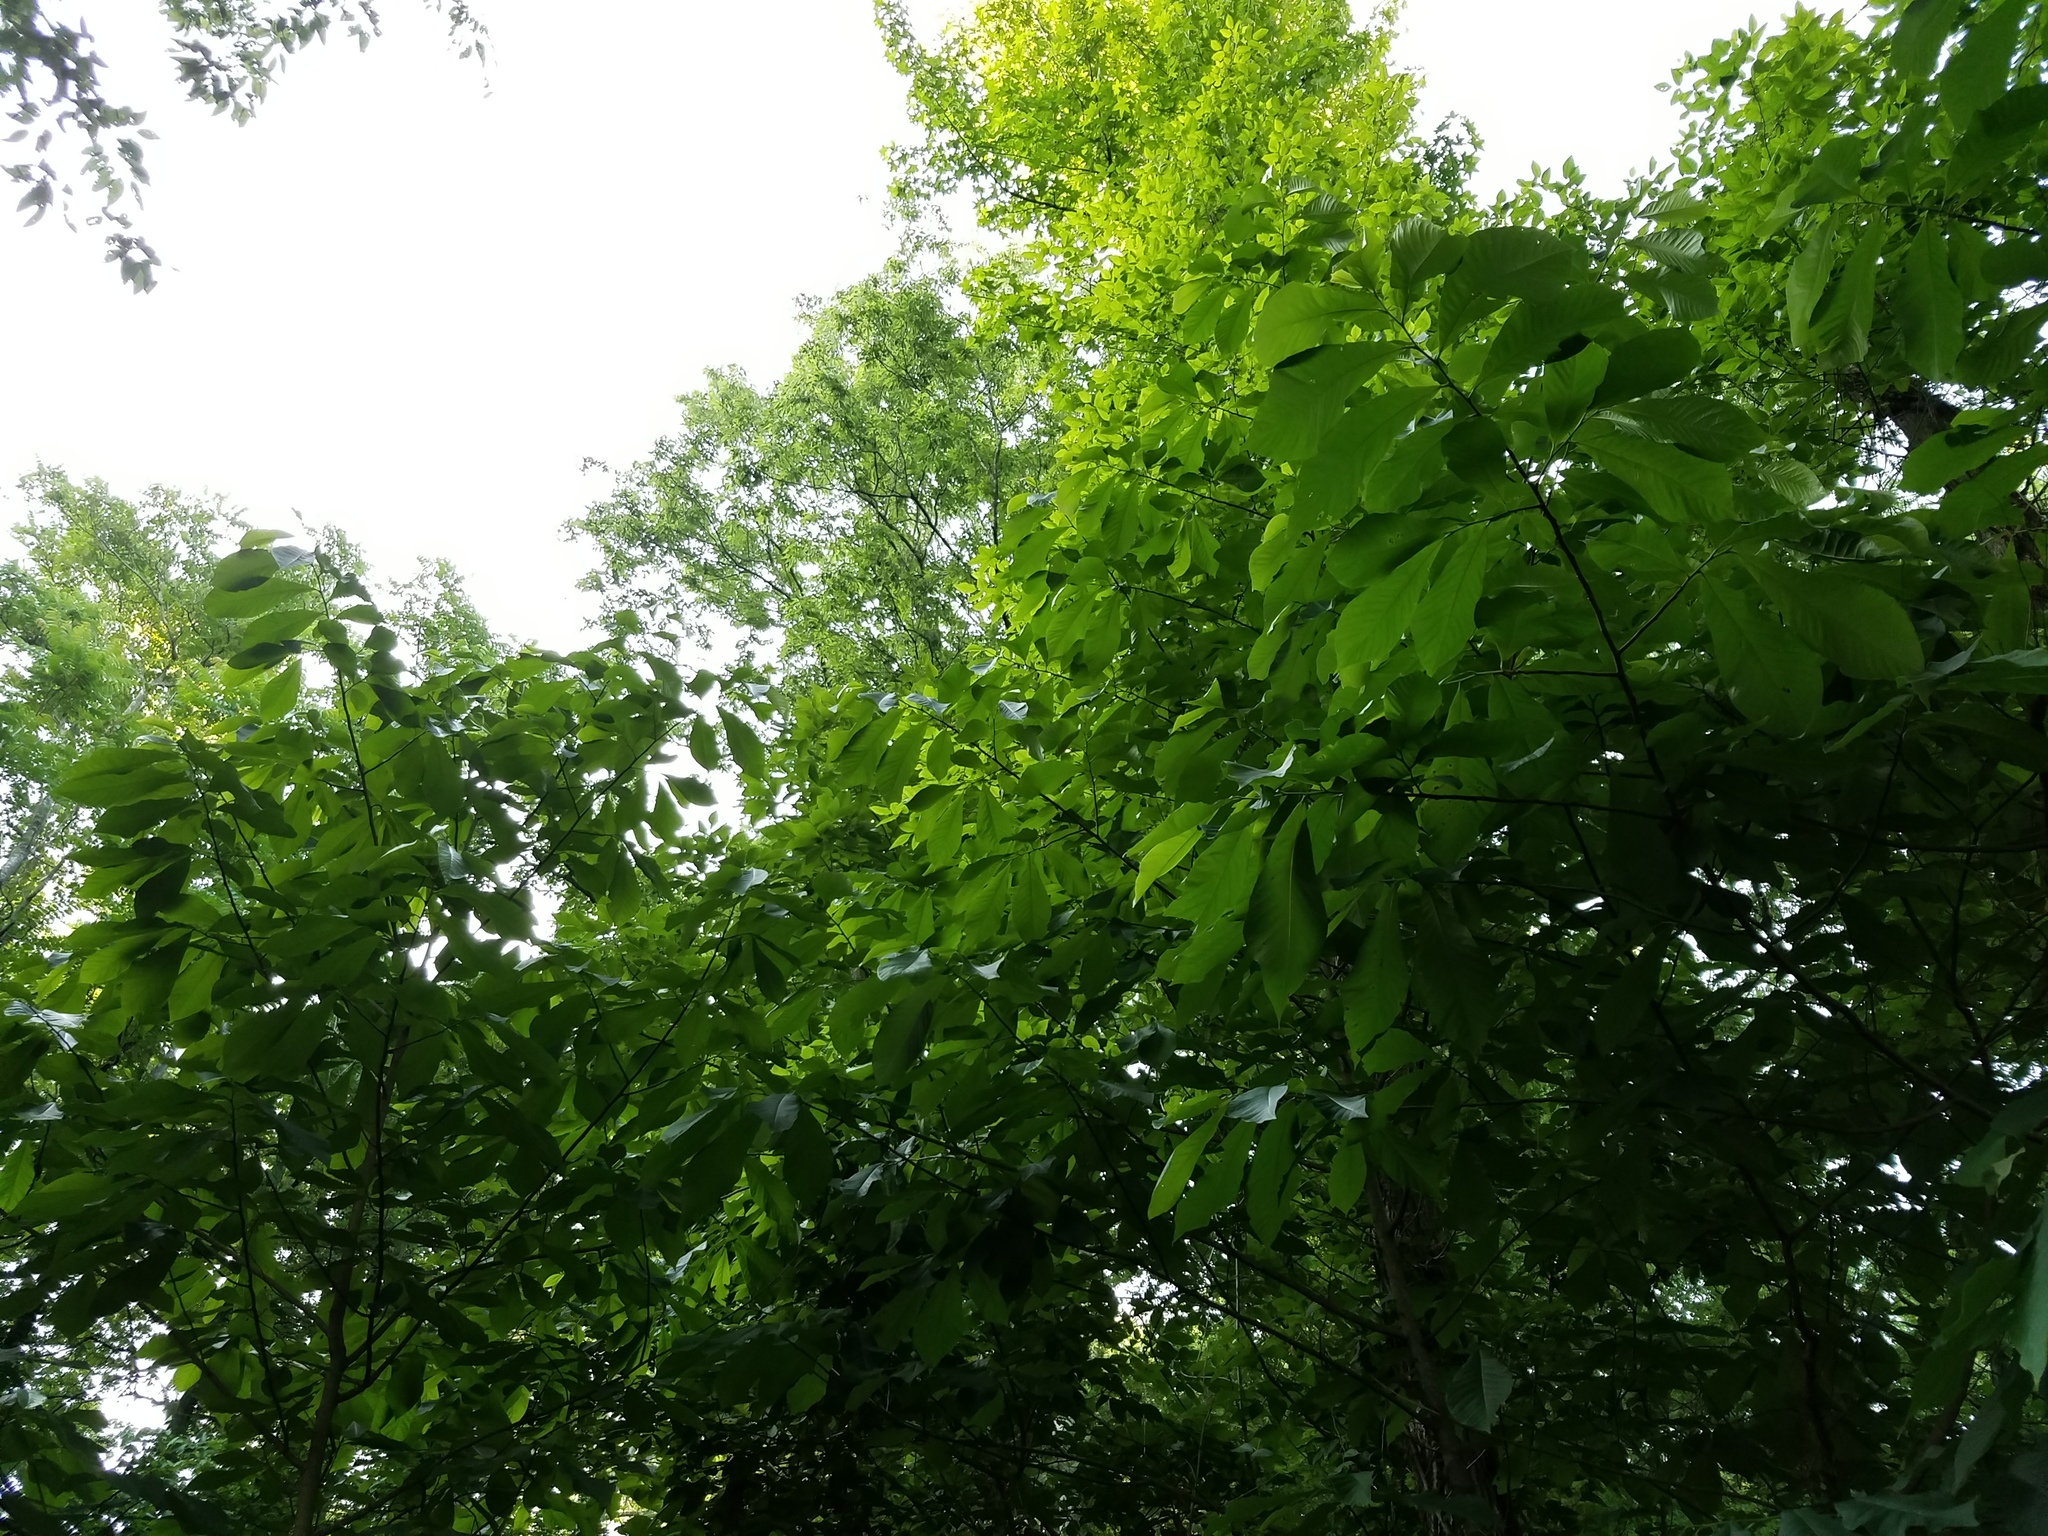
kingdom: Plantae
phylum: Tracheophyta
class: Magnoliopsida
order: Magnoliales
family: Annonaceae
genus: Asimina
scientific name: Asimina triloba
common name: Dog-banana
